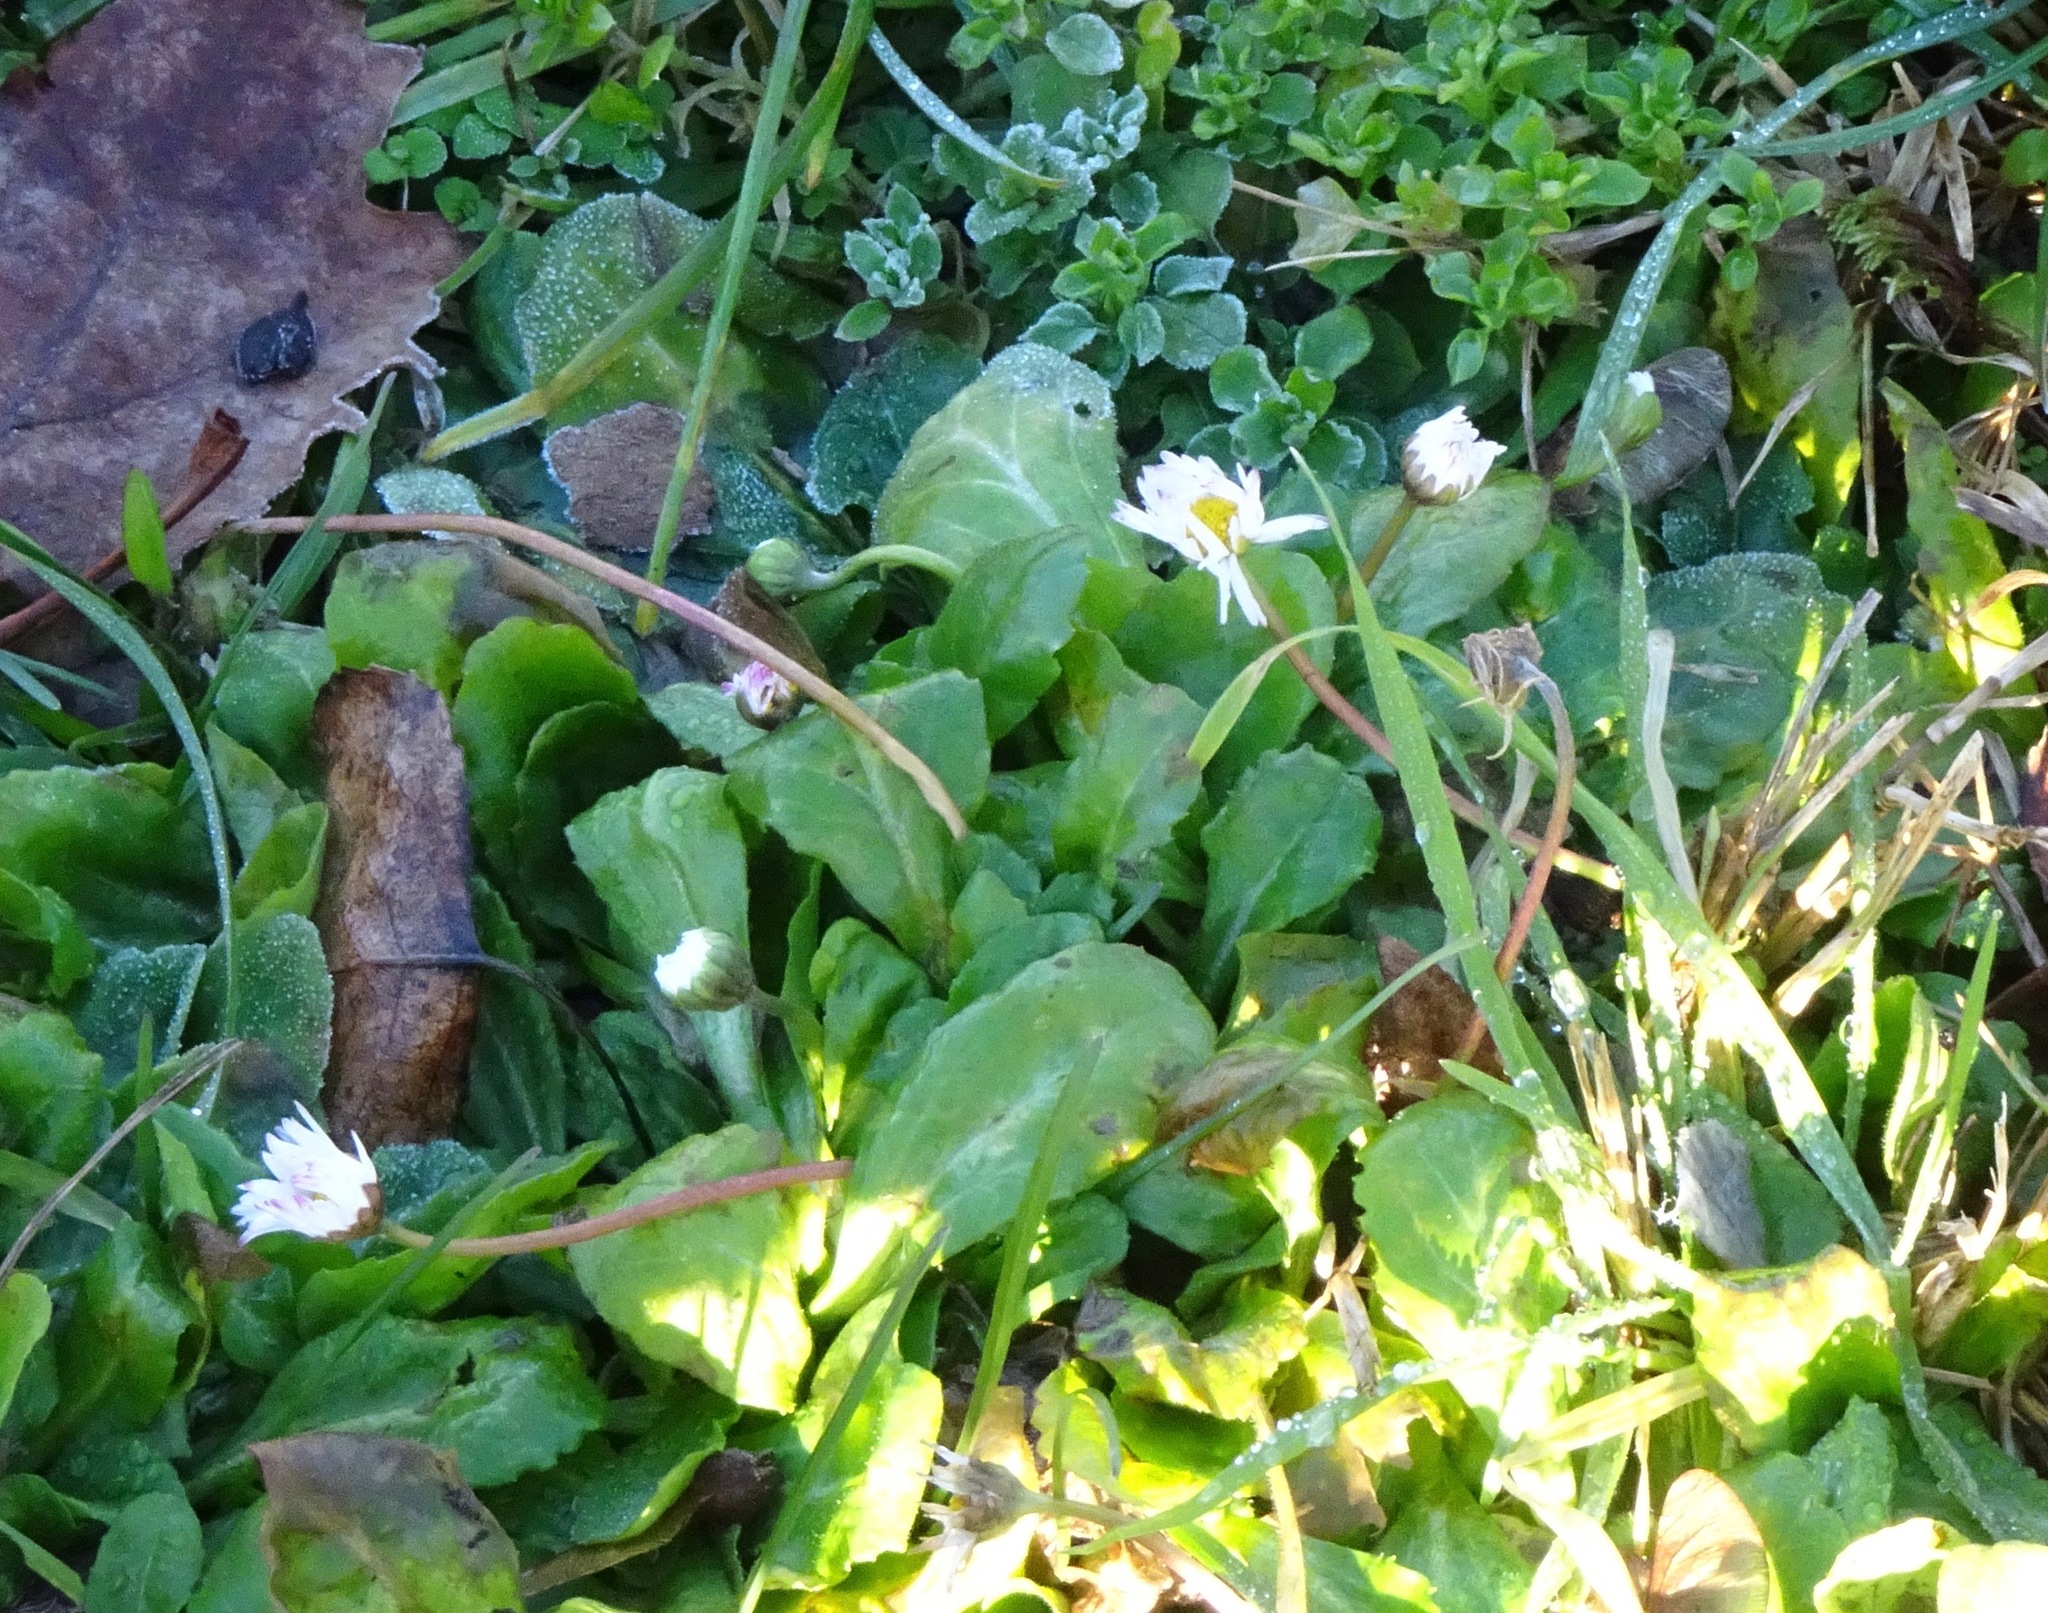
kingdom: Plantae
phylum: Tracheophyta
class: Magnoliopsida
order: Asterales
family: Asteraceae
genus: Bellis
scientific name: Bellis perennis
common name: Lawndaisy
